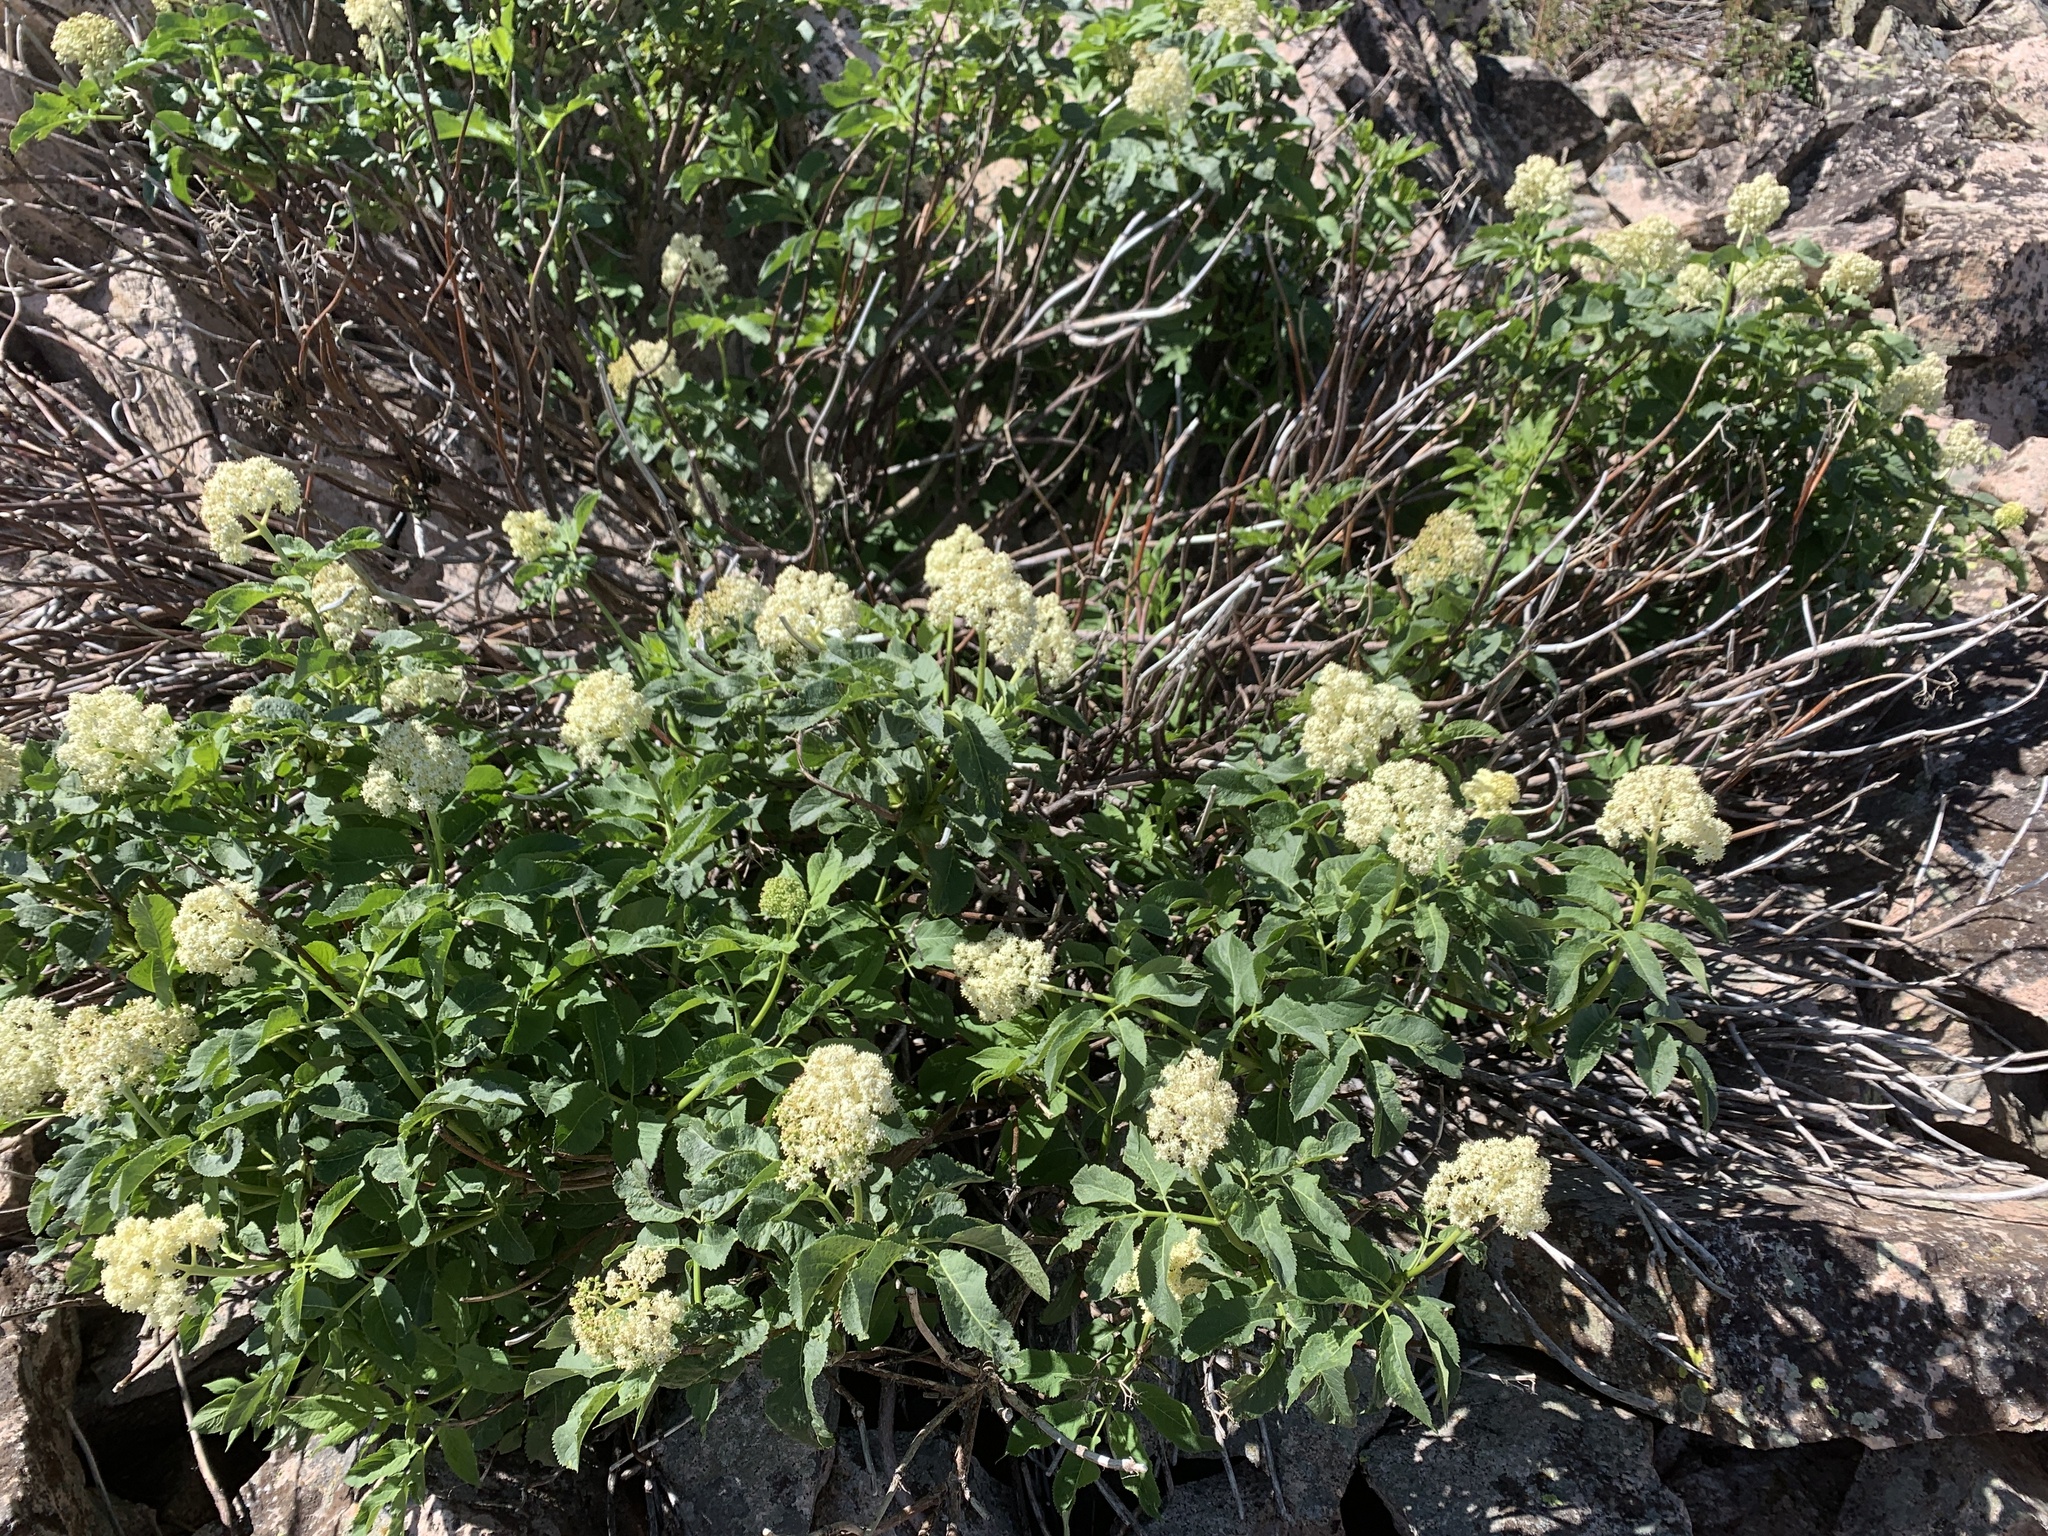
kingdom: Plantae
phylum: Tracheophyta
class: Magnoliopsida
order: Dipsacales
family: Viburnaceae
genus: Sambucus
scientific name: Sambucus racemosa
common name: Red-berried elder
